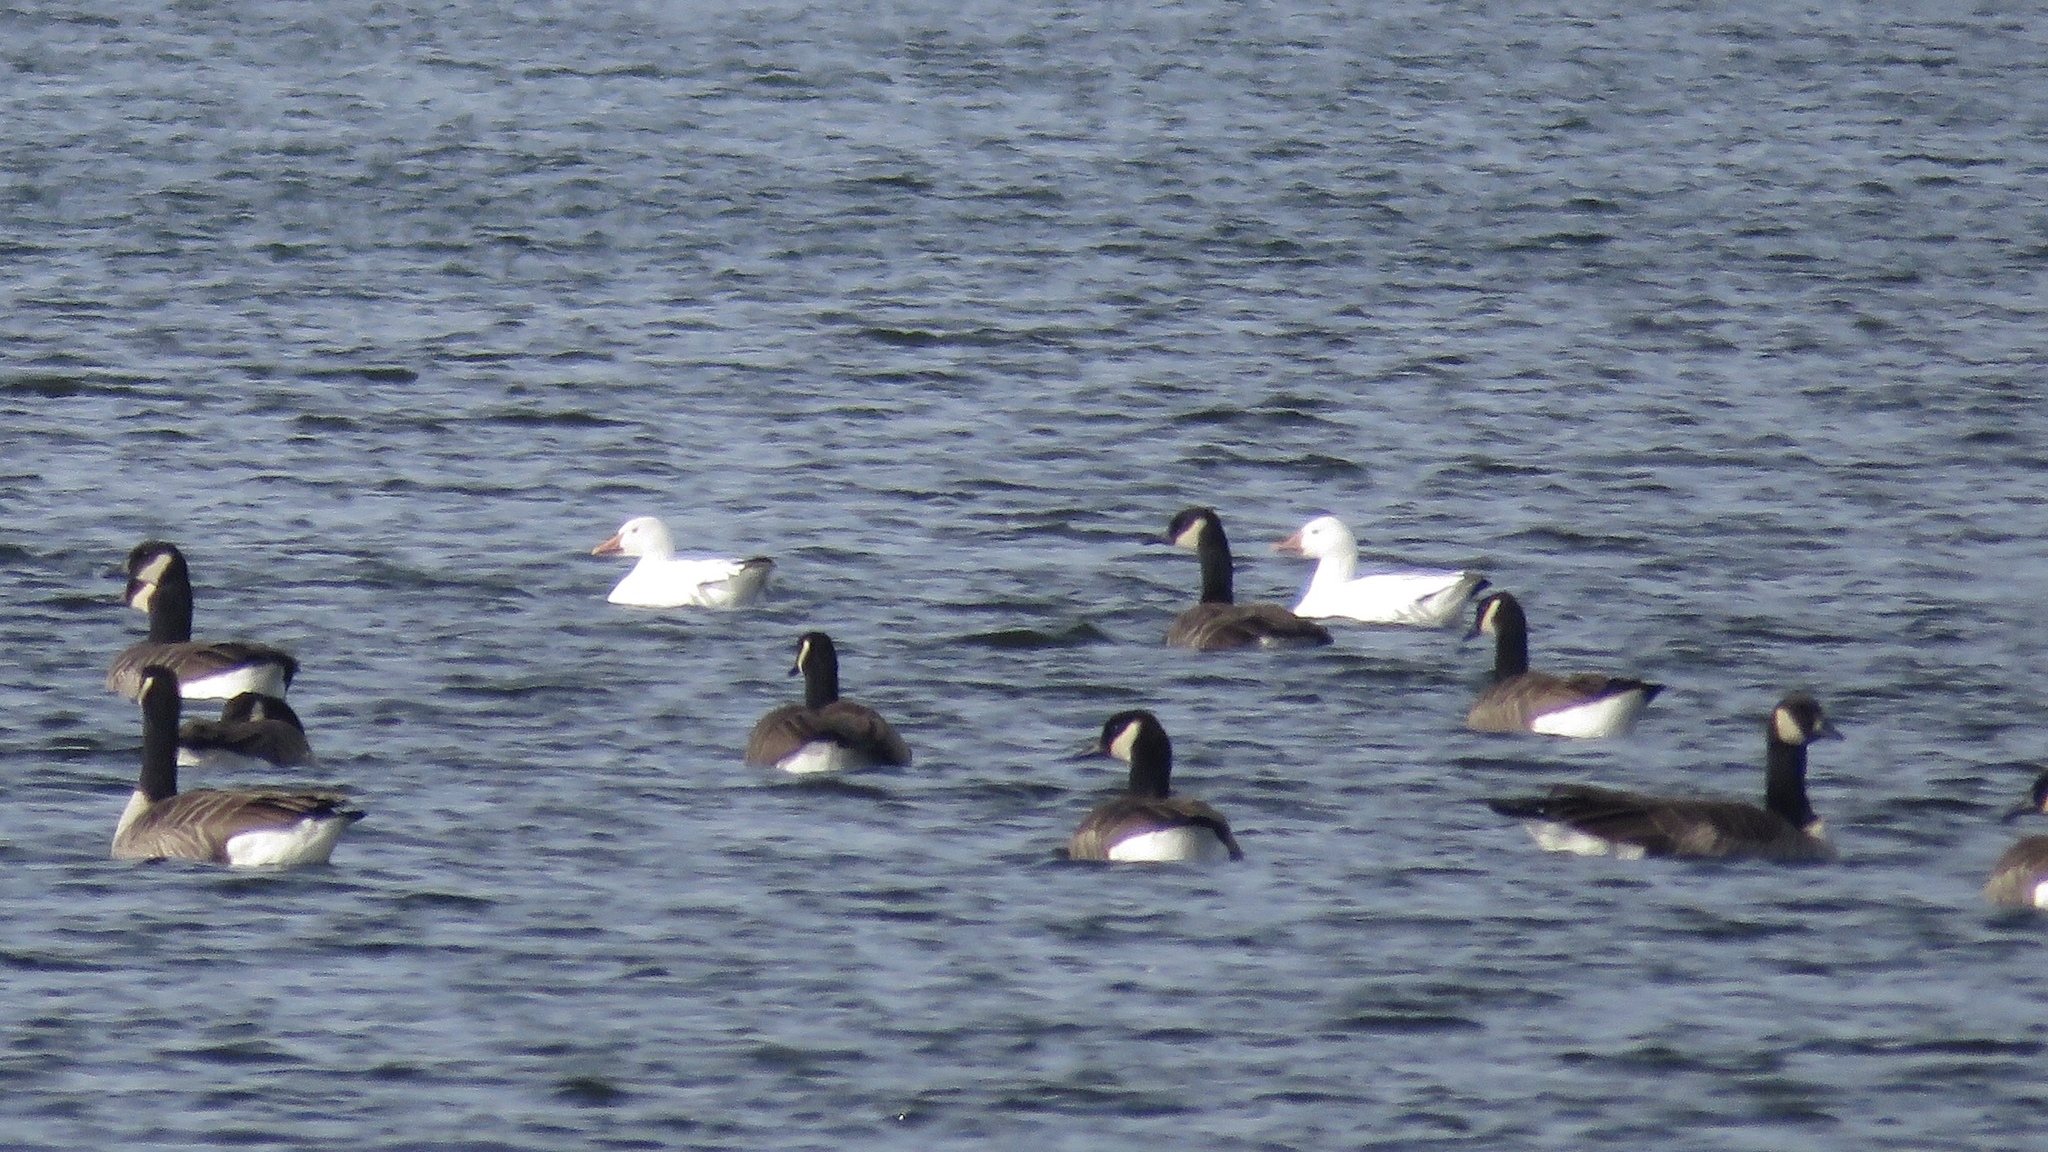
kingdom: Animalia
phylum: Chordata
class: Aves
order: Anseriformes
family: Anatidae
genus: Anser
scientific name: Anser caerulescens
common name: Snow goose
